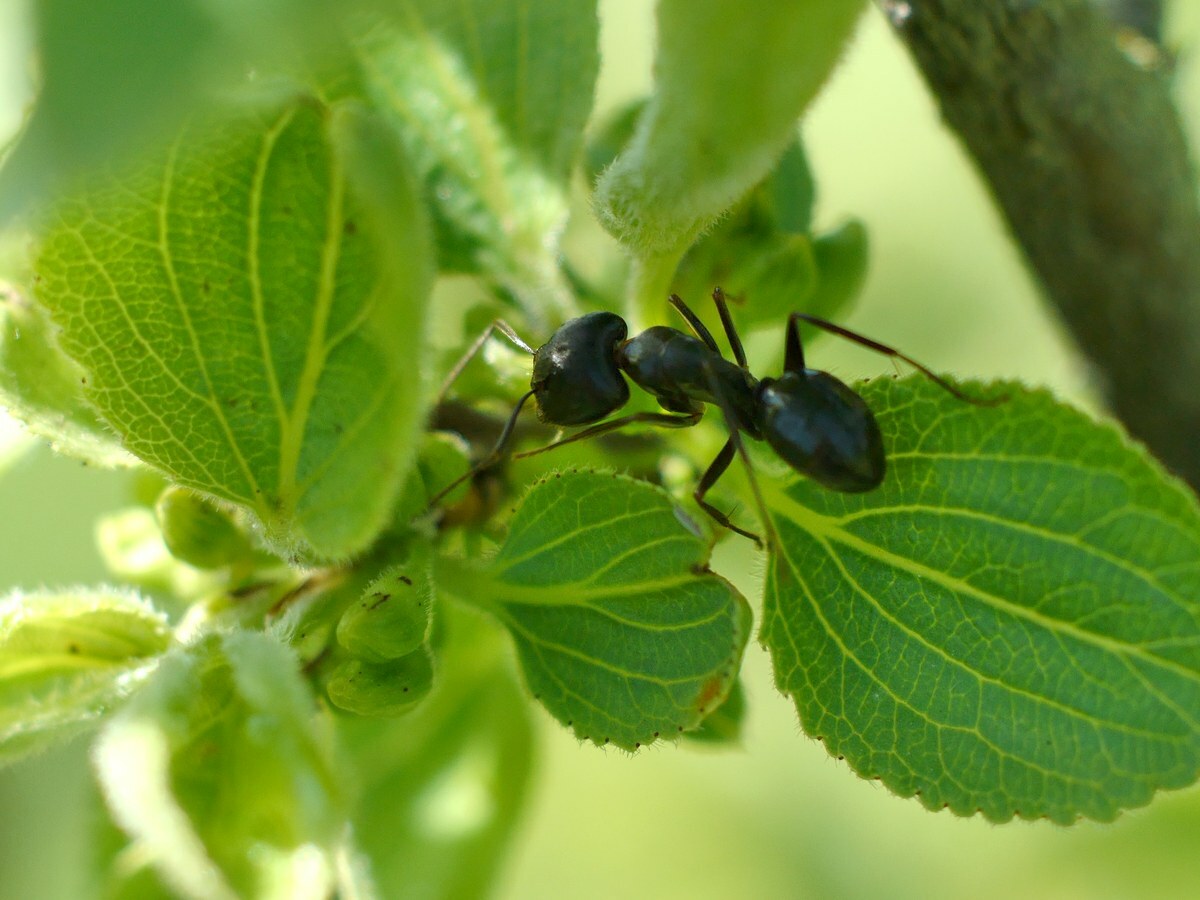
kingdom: Animalia
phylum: Arthropoda
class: Insecta
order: Hymenoptera
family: Formicidae
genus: Camponotus
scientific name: Camponotus aethiops
